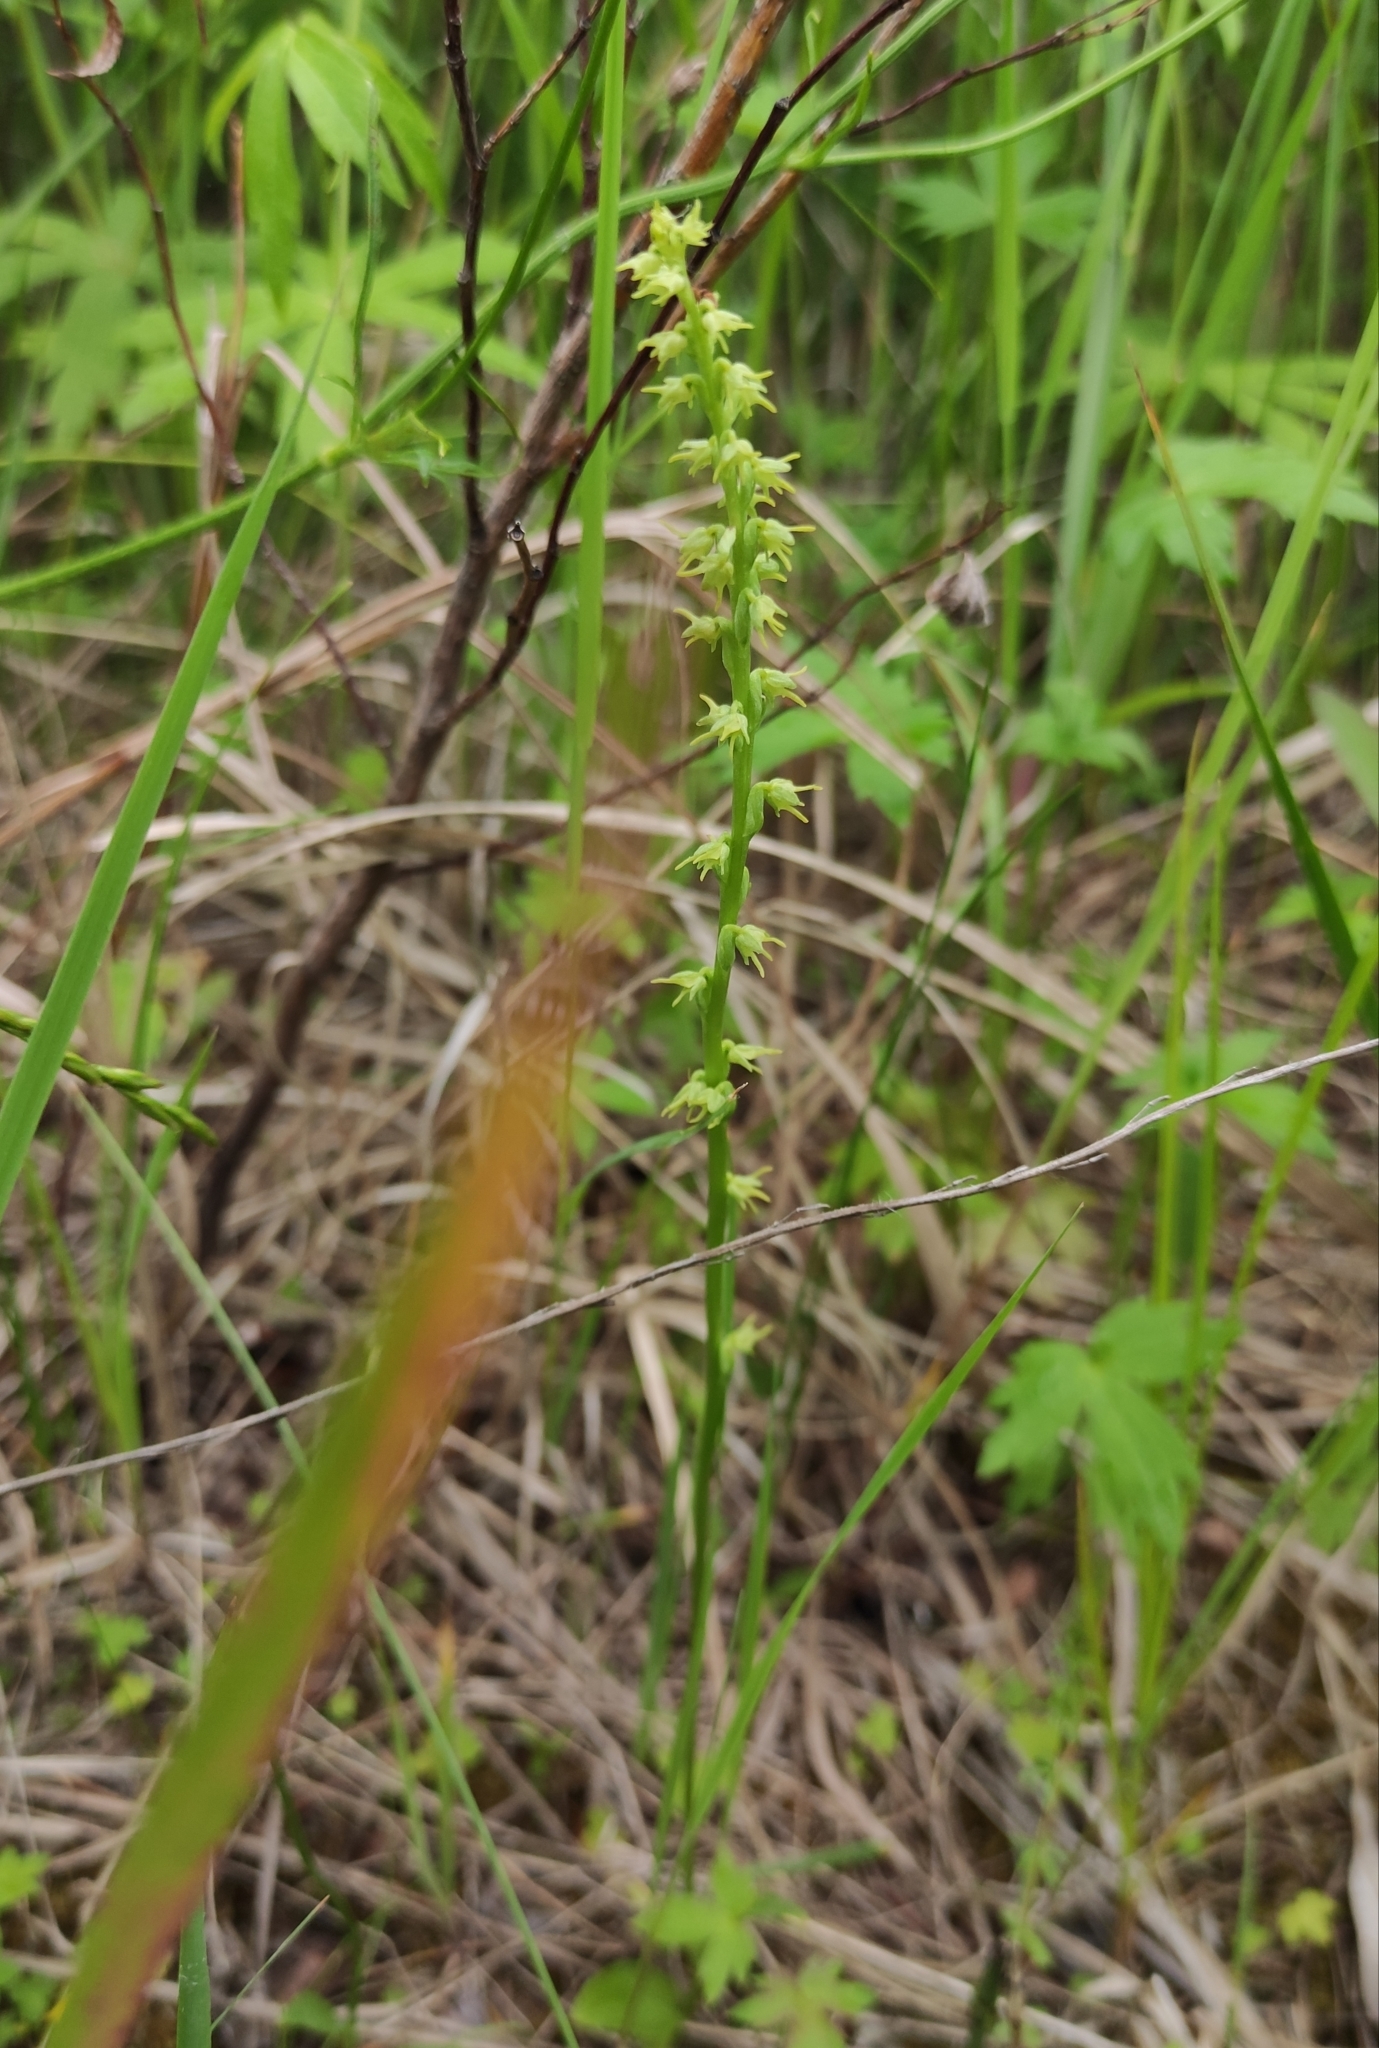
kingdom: Plantae
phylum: Tracheophyta
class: Liliopsida
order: Asparagales
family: Orchidaceae
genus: Herminium
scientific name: Herminium monorchis
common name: Musk orchid
